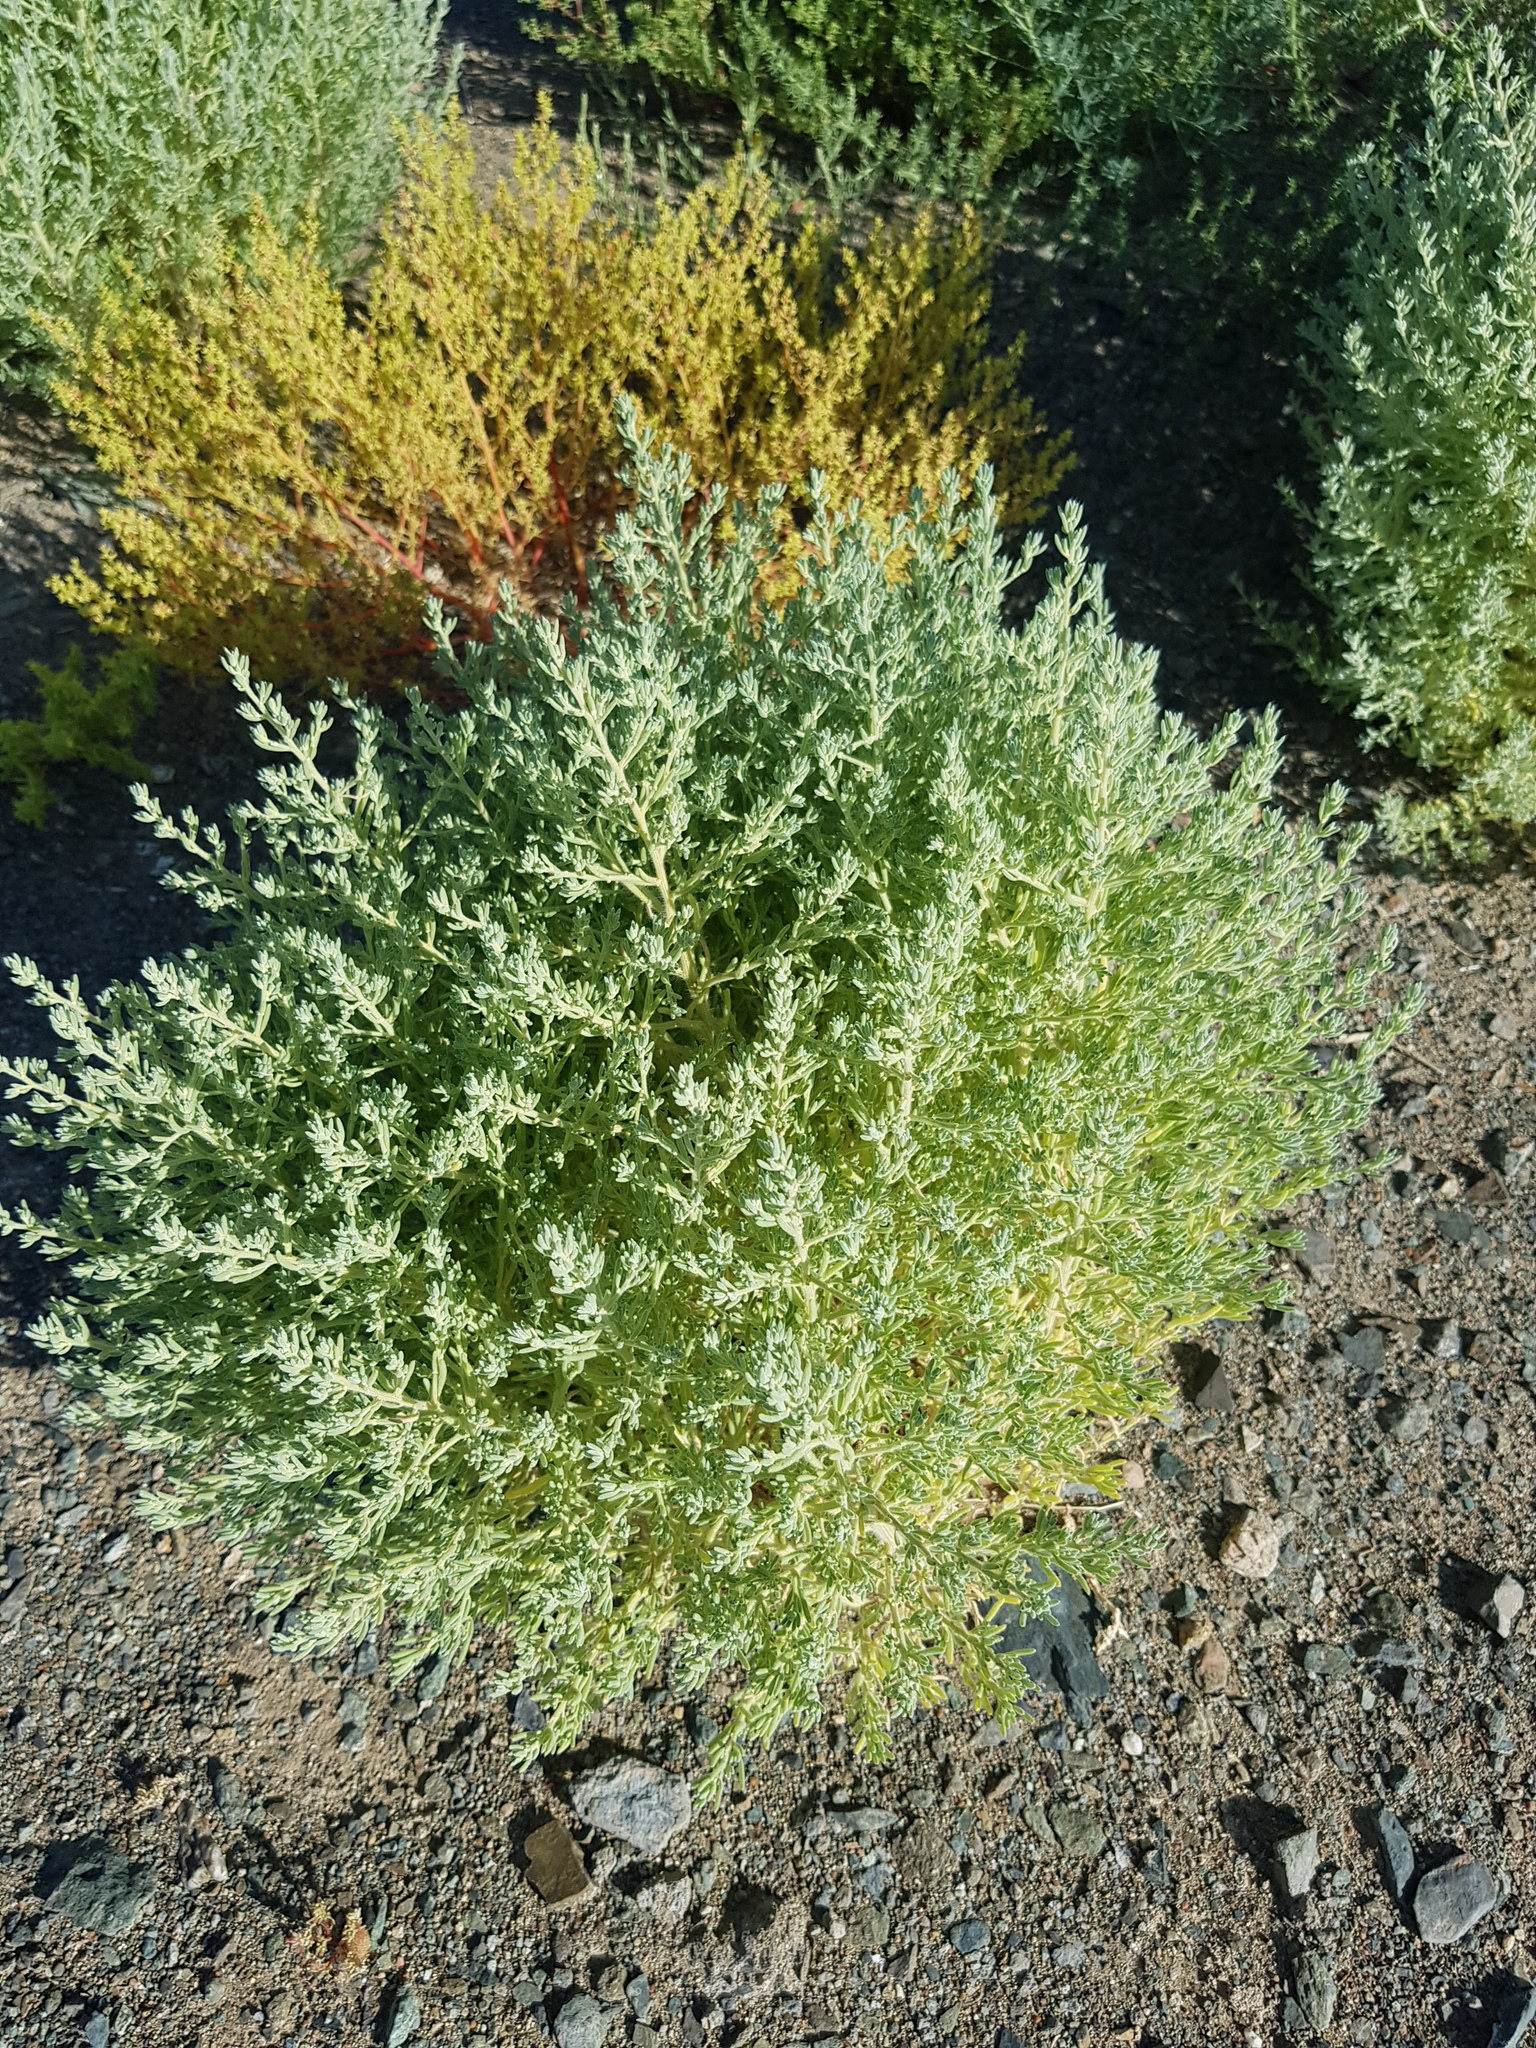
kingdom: Plantae
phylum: Tracheophyta
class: Magnoliopsida
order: Caryophyllales
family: Amaranthaceae
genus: Halogeton
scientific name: Halogeton glomeratus
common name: Saltlover
